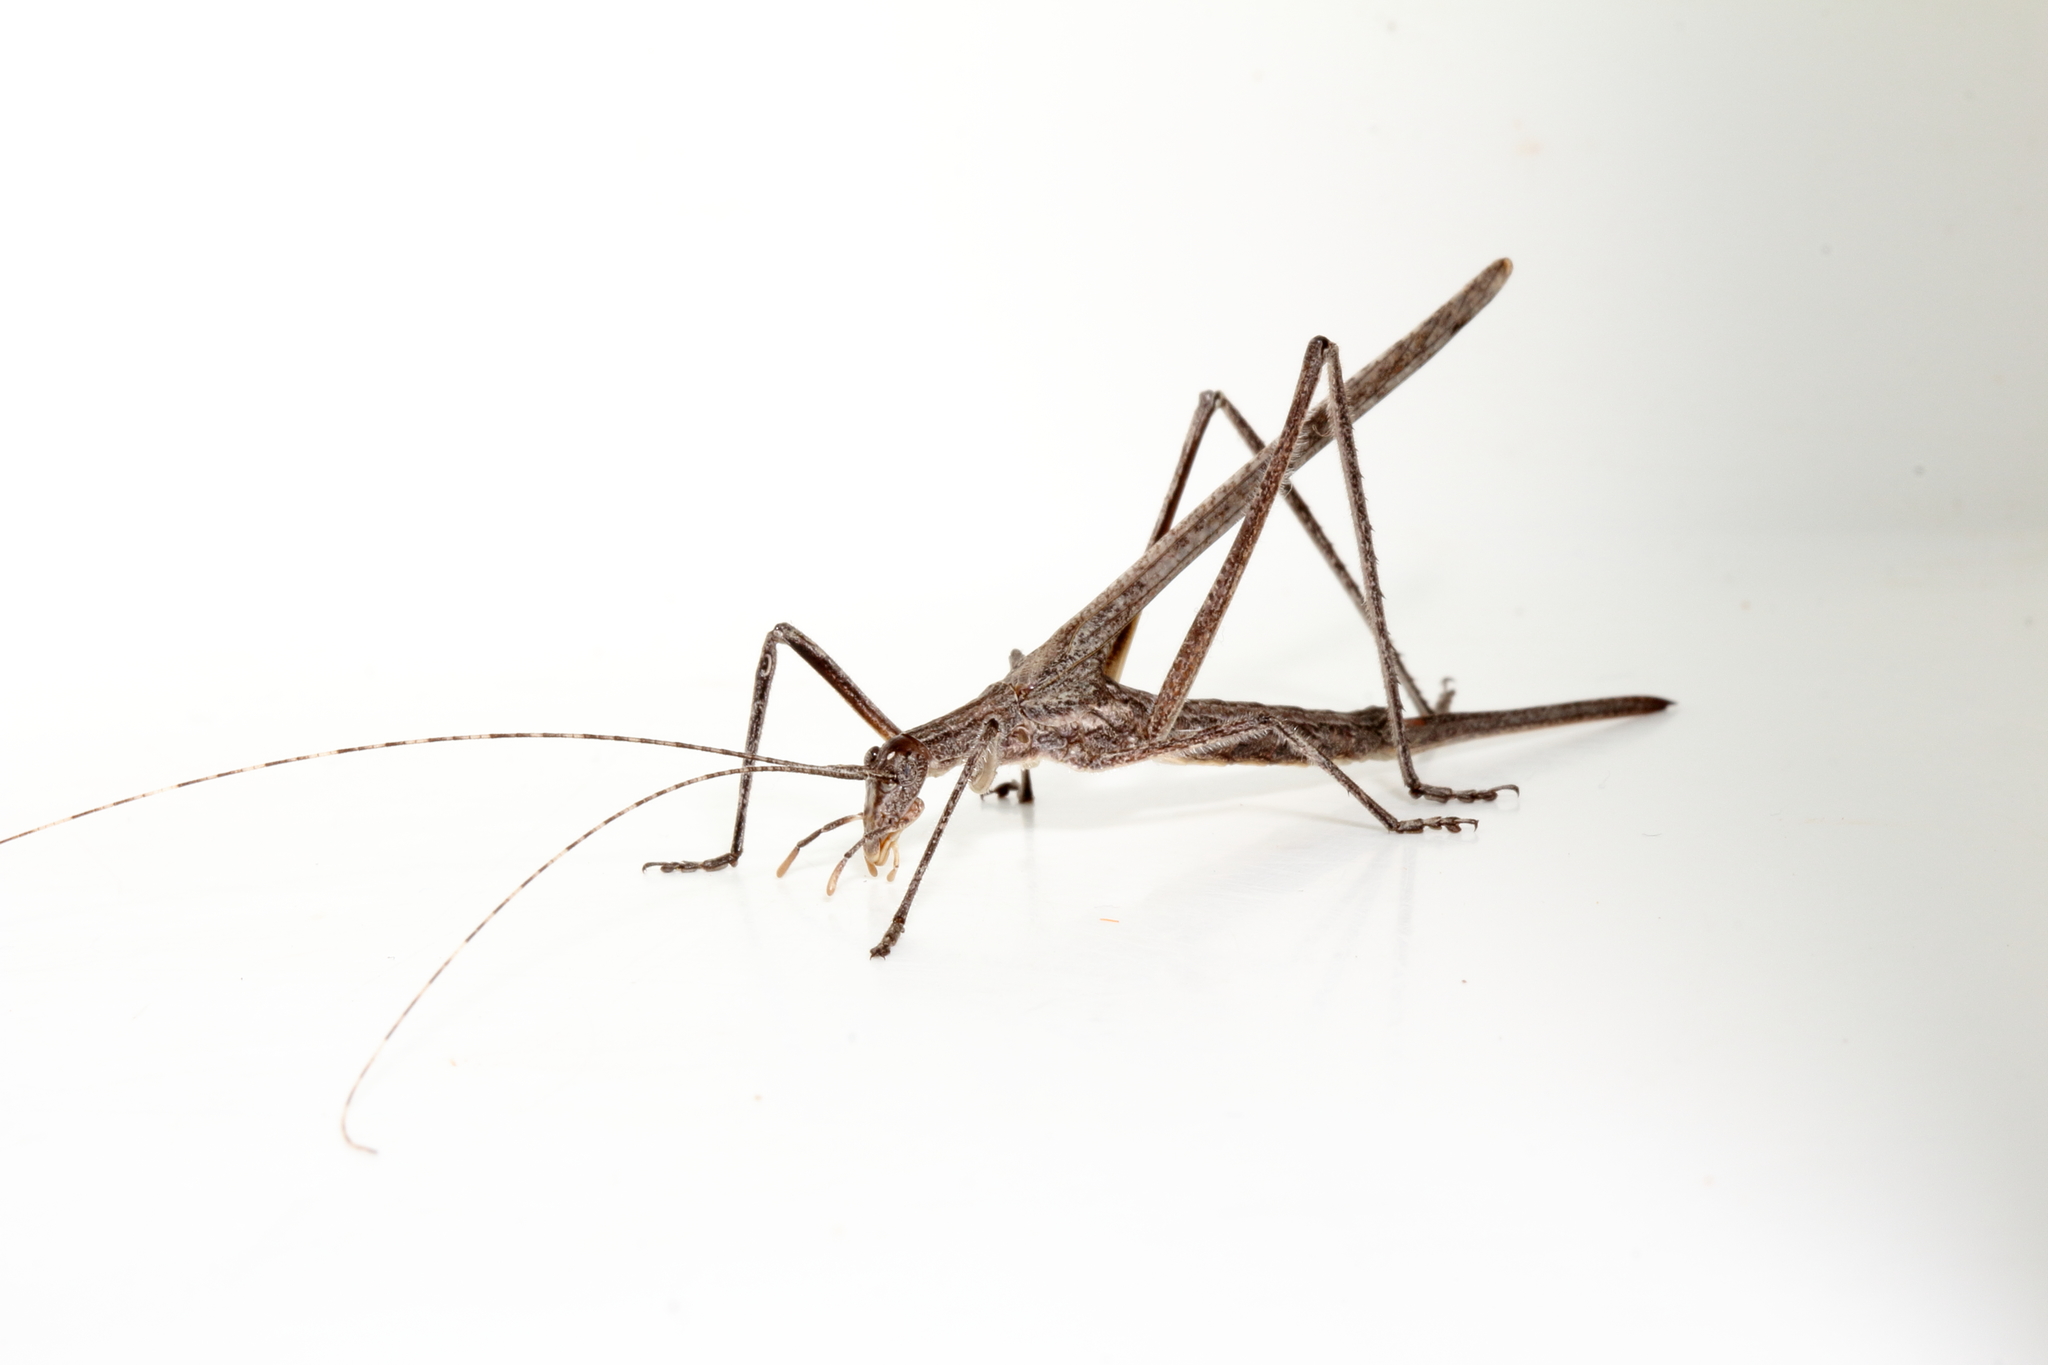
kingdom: Animalia
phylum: Arthropoda
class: Insecta
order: Orthoptera
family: Tettigoniidae
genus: Zaprochilus
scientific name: Zaprochilus australis
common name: Australian twig-mimicking katydid
